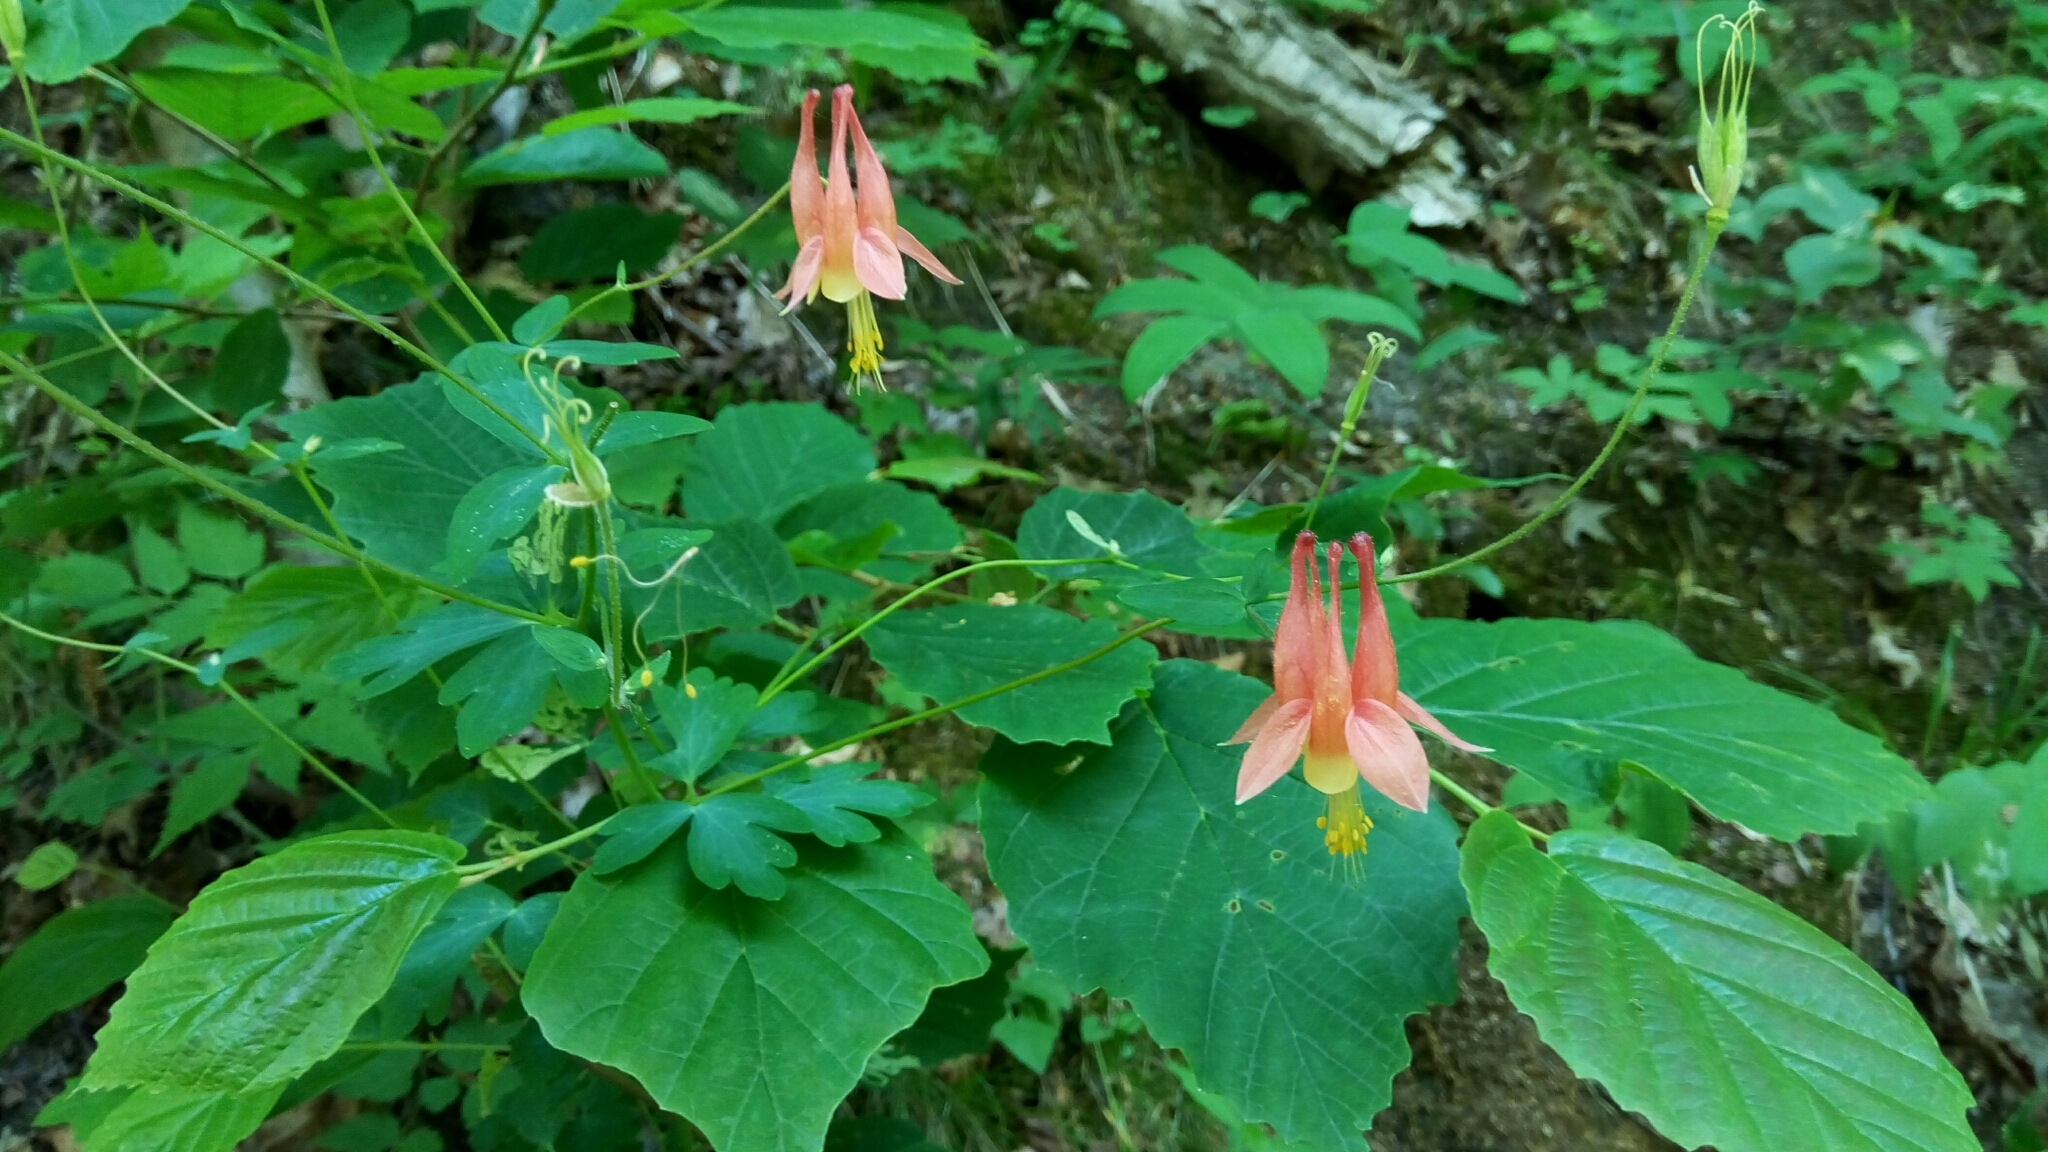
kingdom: Plantae
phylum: Tracheophyta
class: Magnoliopsida
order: Ranunculales
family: Ranunculaceae
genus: Aquilegia
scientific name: Aquilegia canadensis
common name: American columbine
